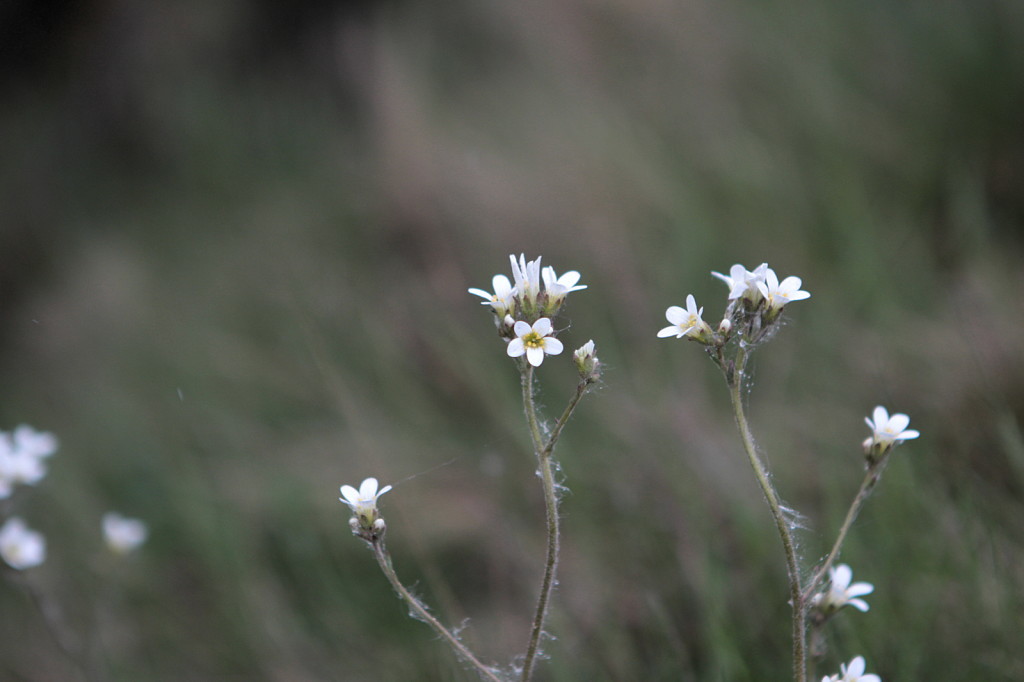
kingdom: Plantae
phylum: Tracheophyta
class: Magnoliopsida
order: Saxifragales
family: Saxifragaceae
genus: Saxifraga
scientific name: Saxifraga granulata
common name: Meadow saxifrage
